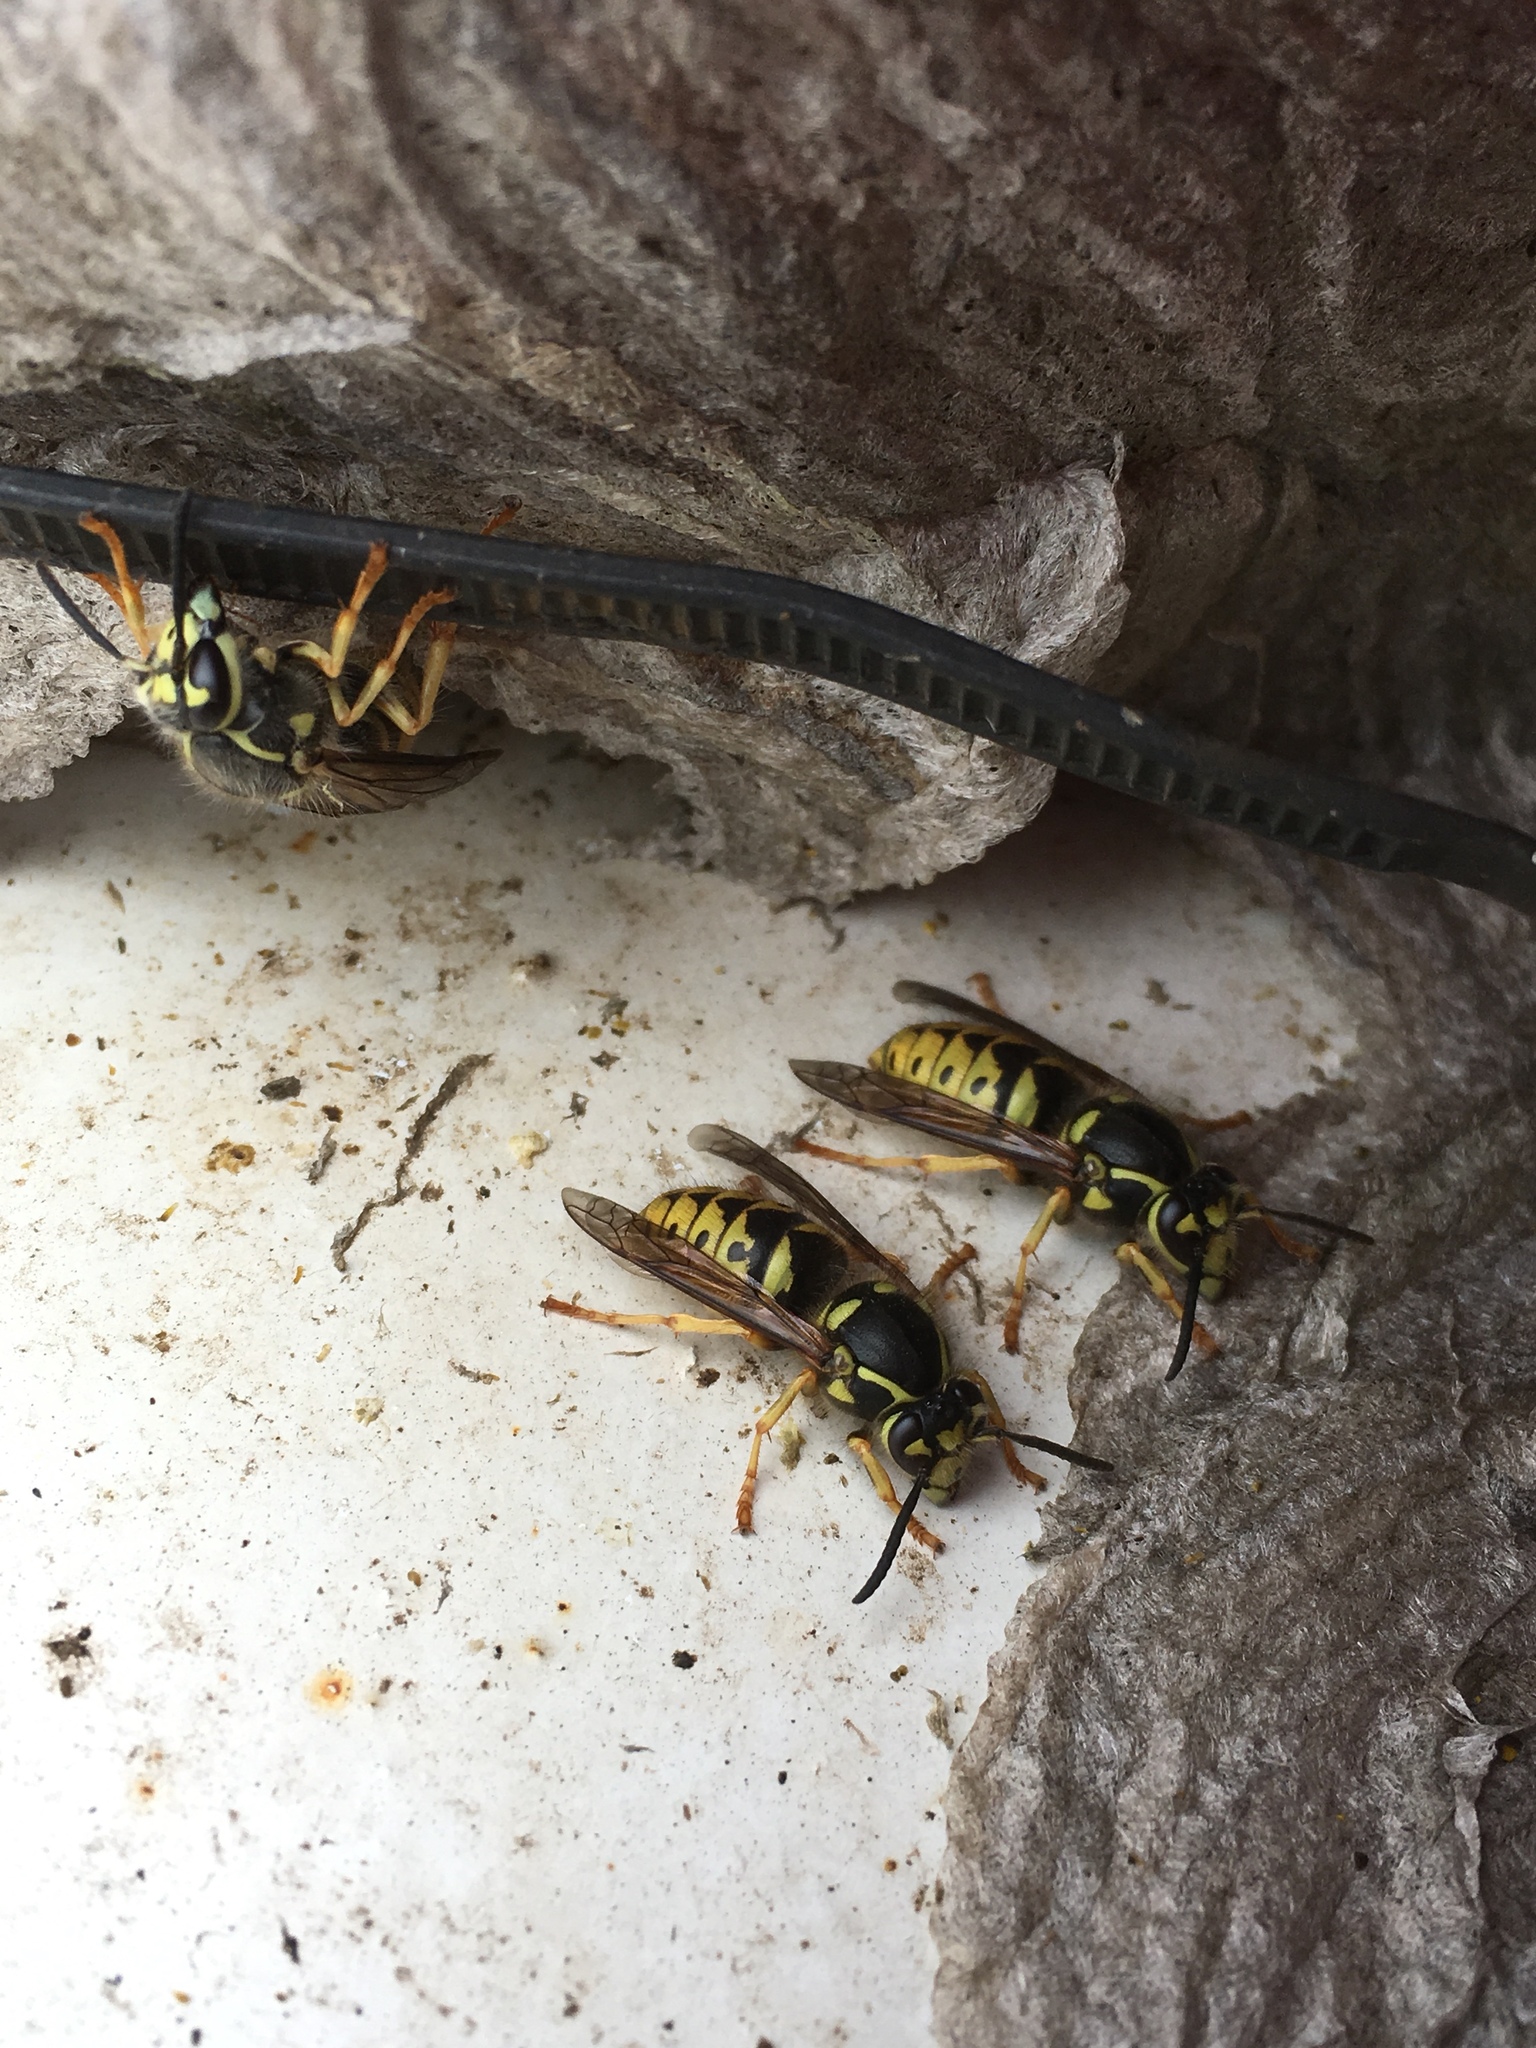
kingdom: Animalia
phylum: Arthropoda
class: Insecta
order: Hymenoptera
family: Vespidae
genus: Dolichovespula
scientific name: Dolichovespula arenaria
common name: Aerial yellowjacket
